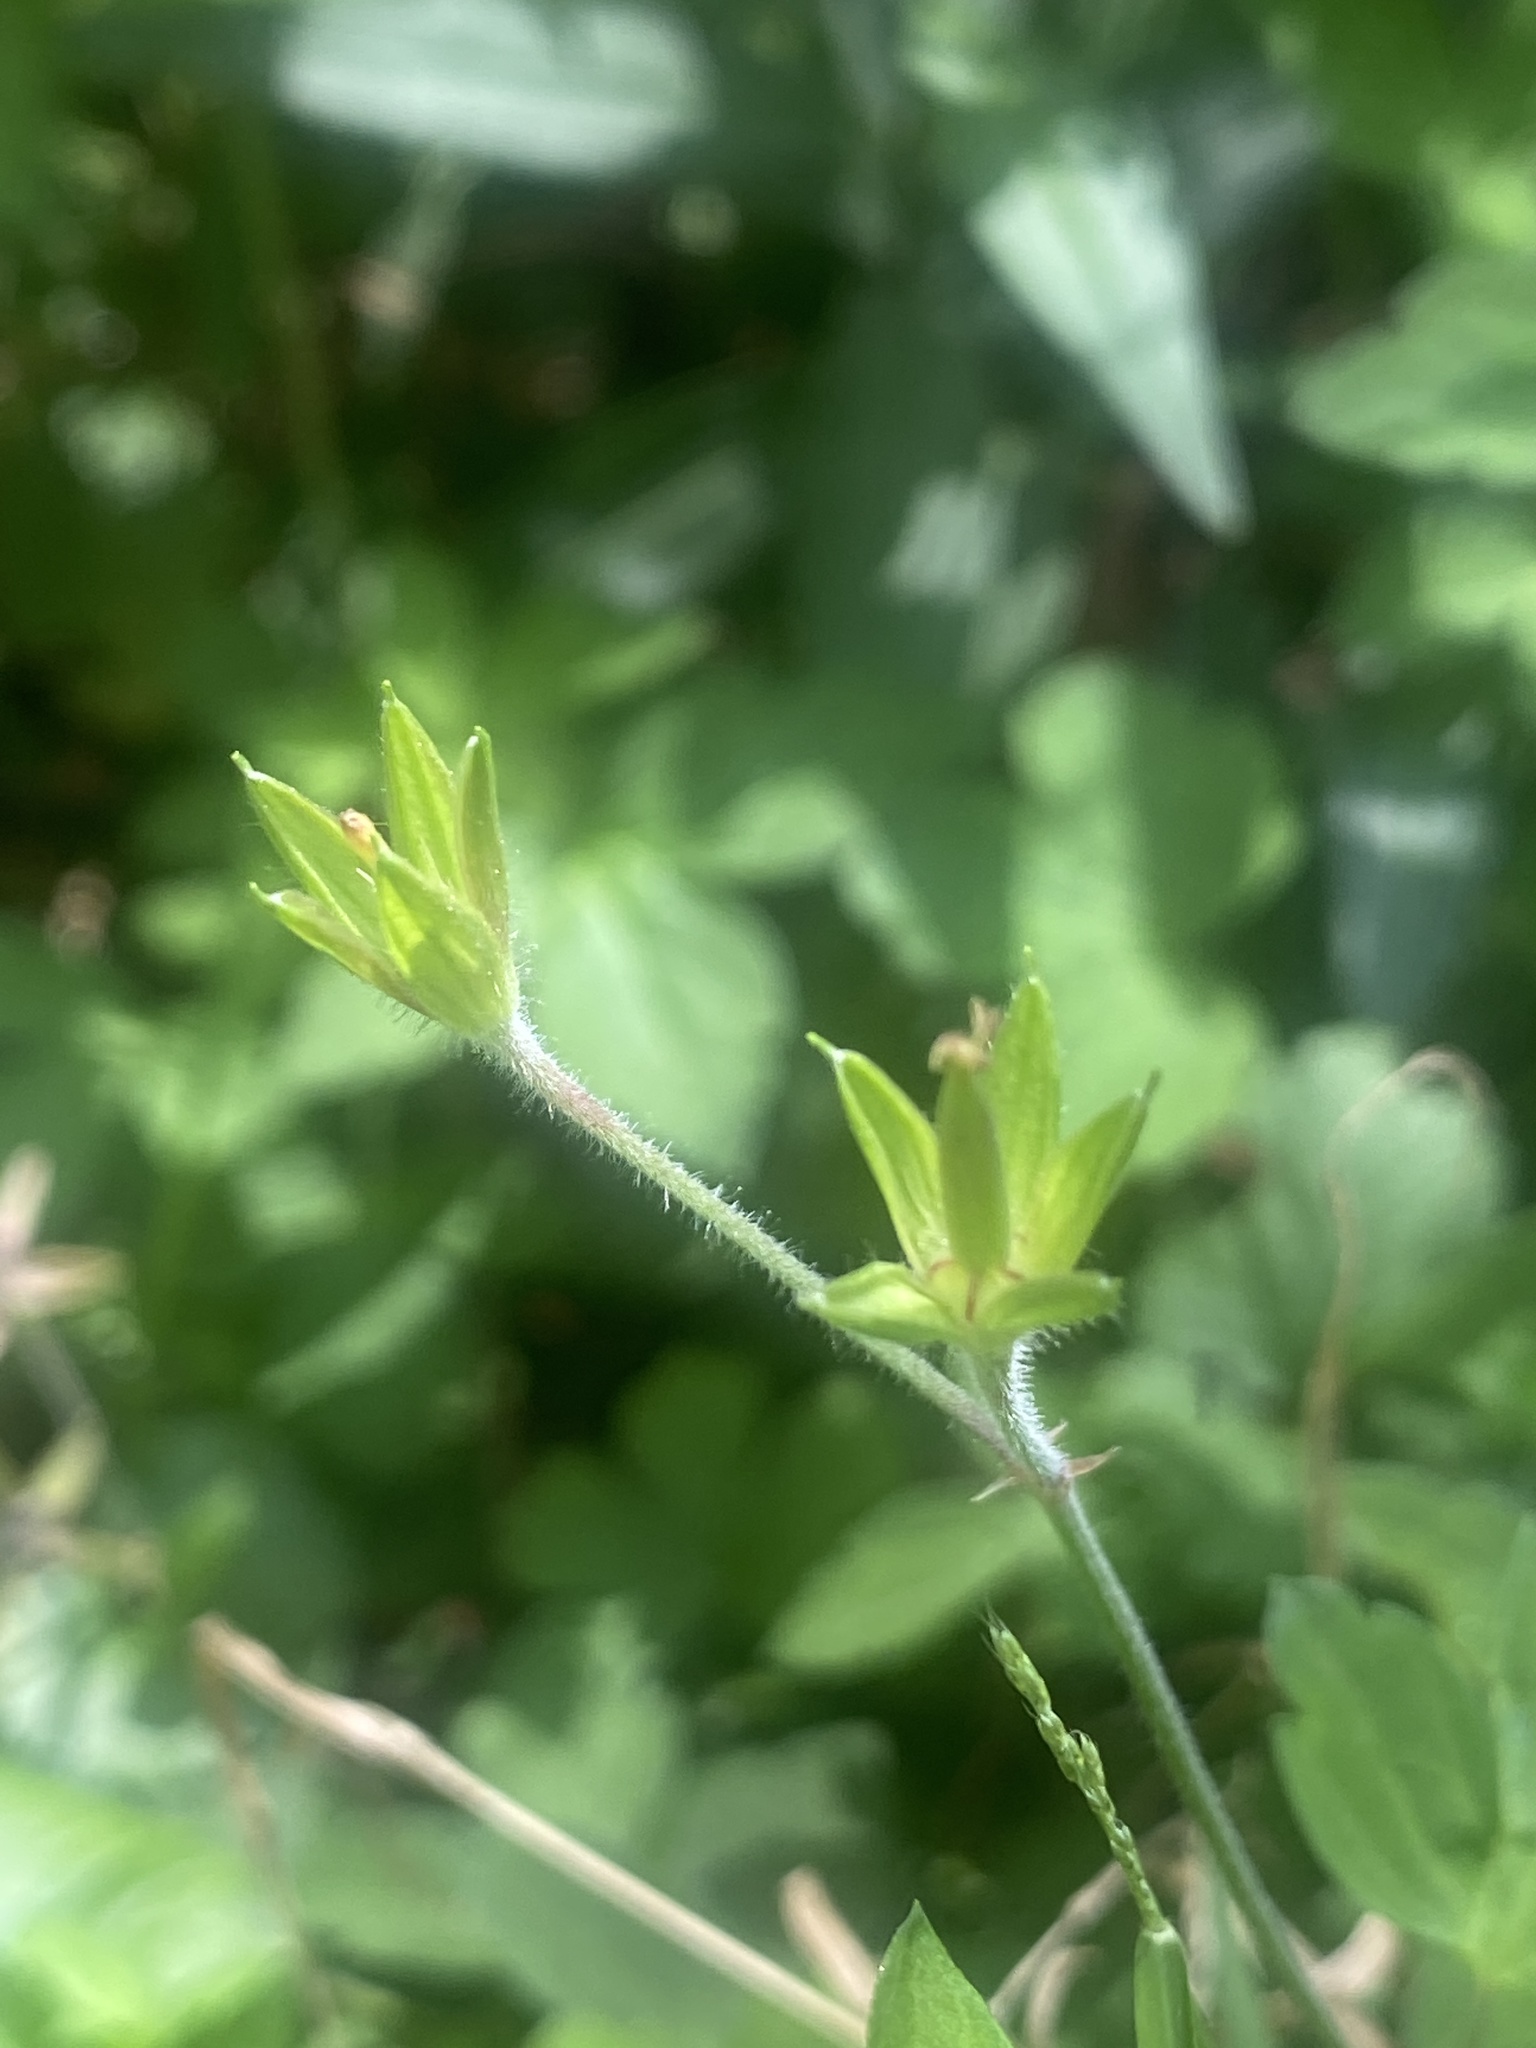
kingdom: Plantae
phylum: Tracheophyta
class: Magnoliopsida
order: Geraniales
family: Geraniaceae
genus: Geranium
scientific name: Geranium thunbergii
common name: Dewdrop crane's-bill
